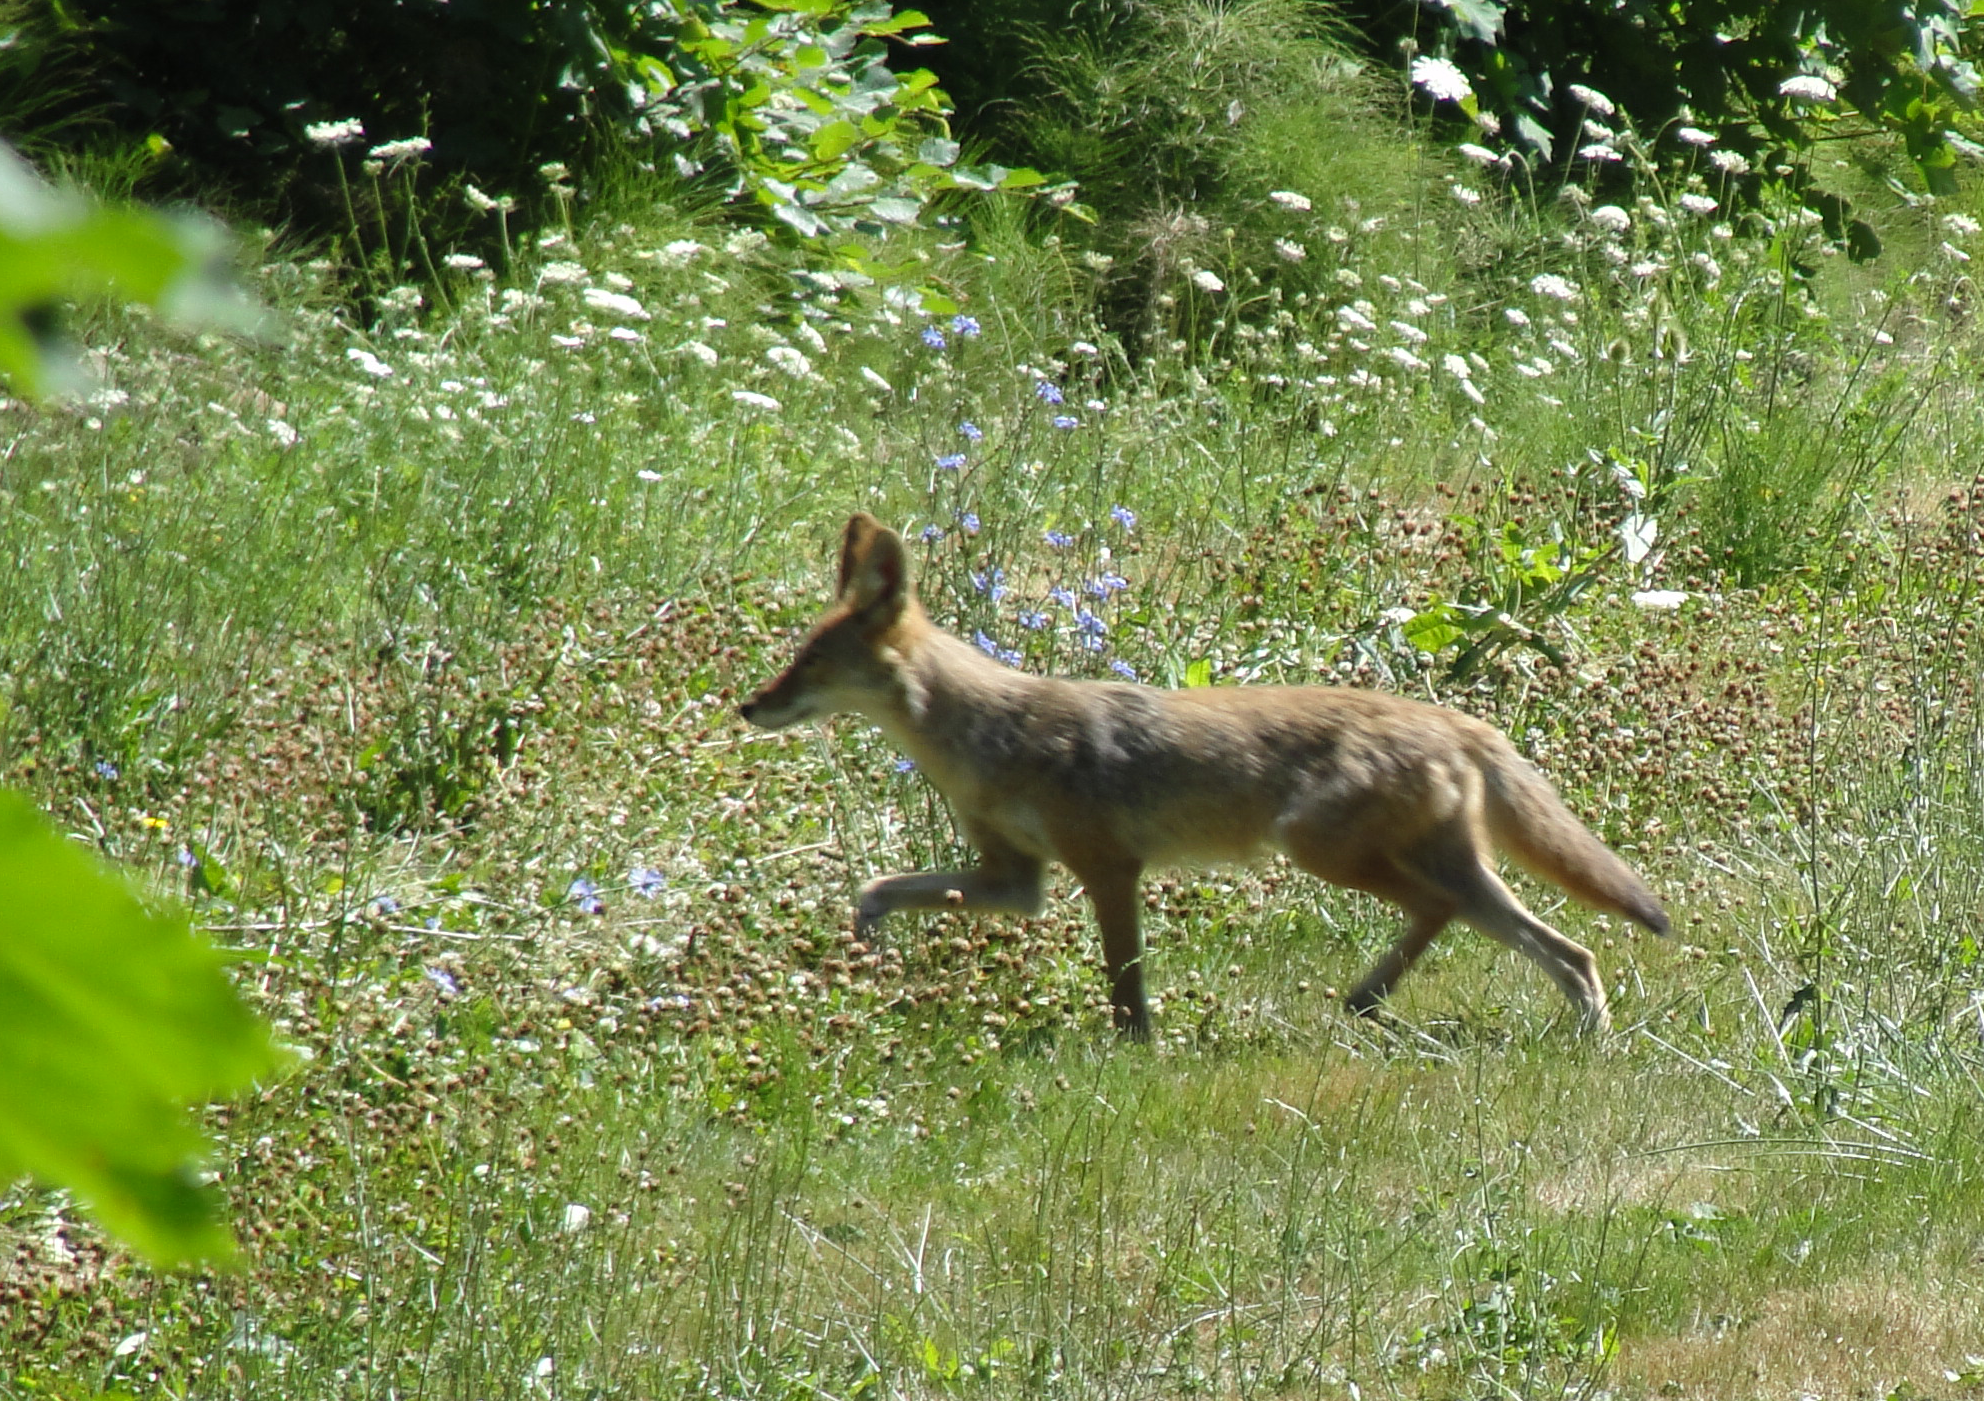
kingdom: Animalia
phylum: Chordata
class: Mammalia
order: Carnivora
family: Canidae
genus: Canis
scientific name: Canis latrans
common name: Coyote
